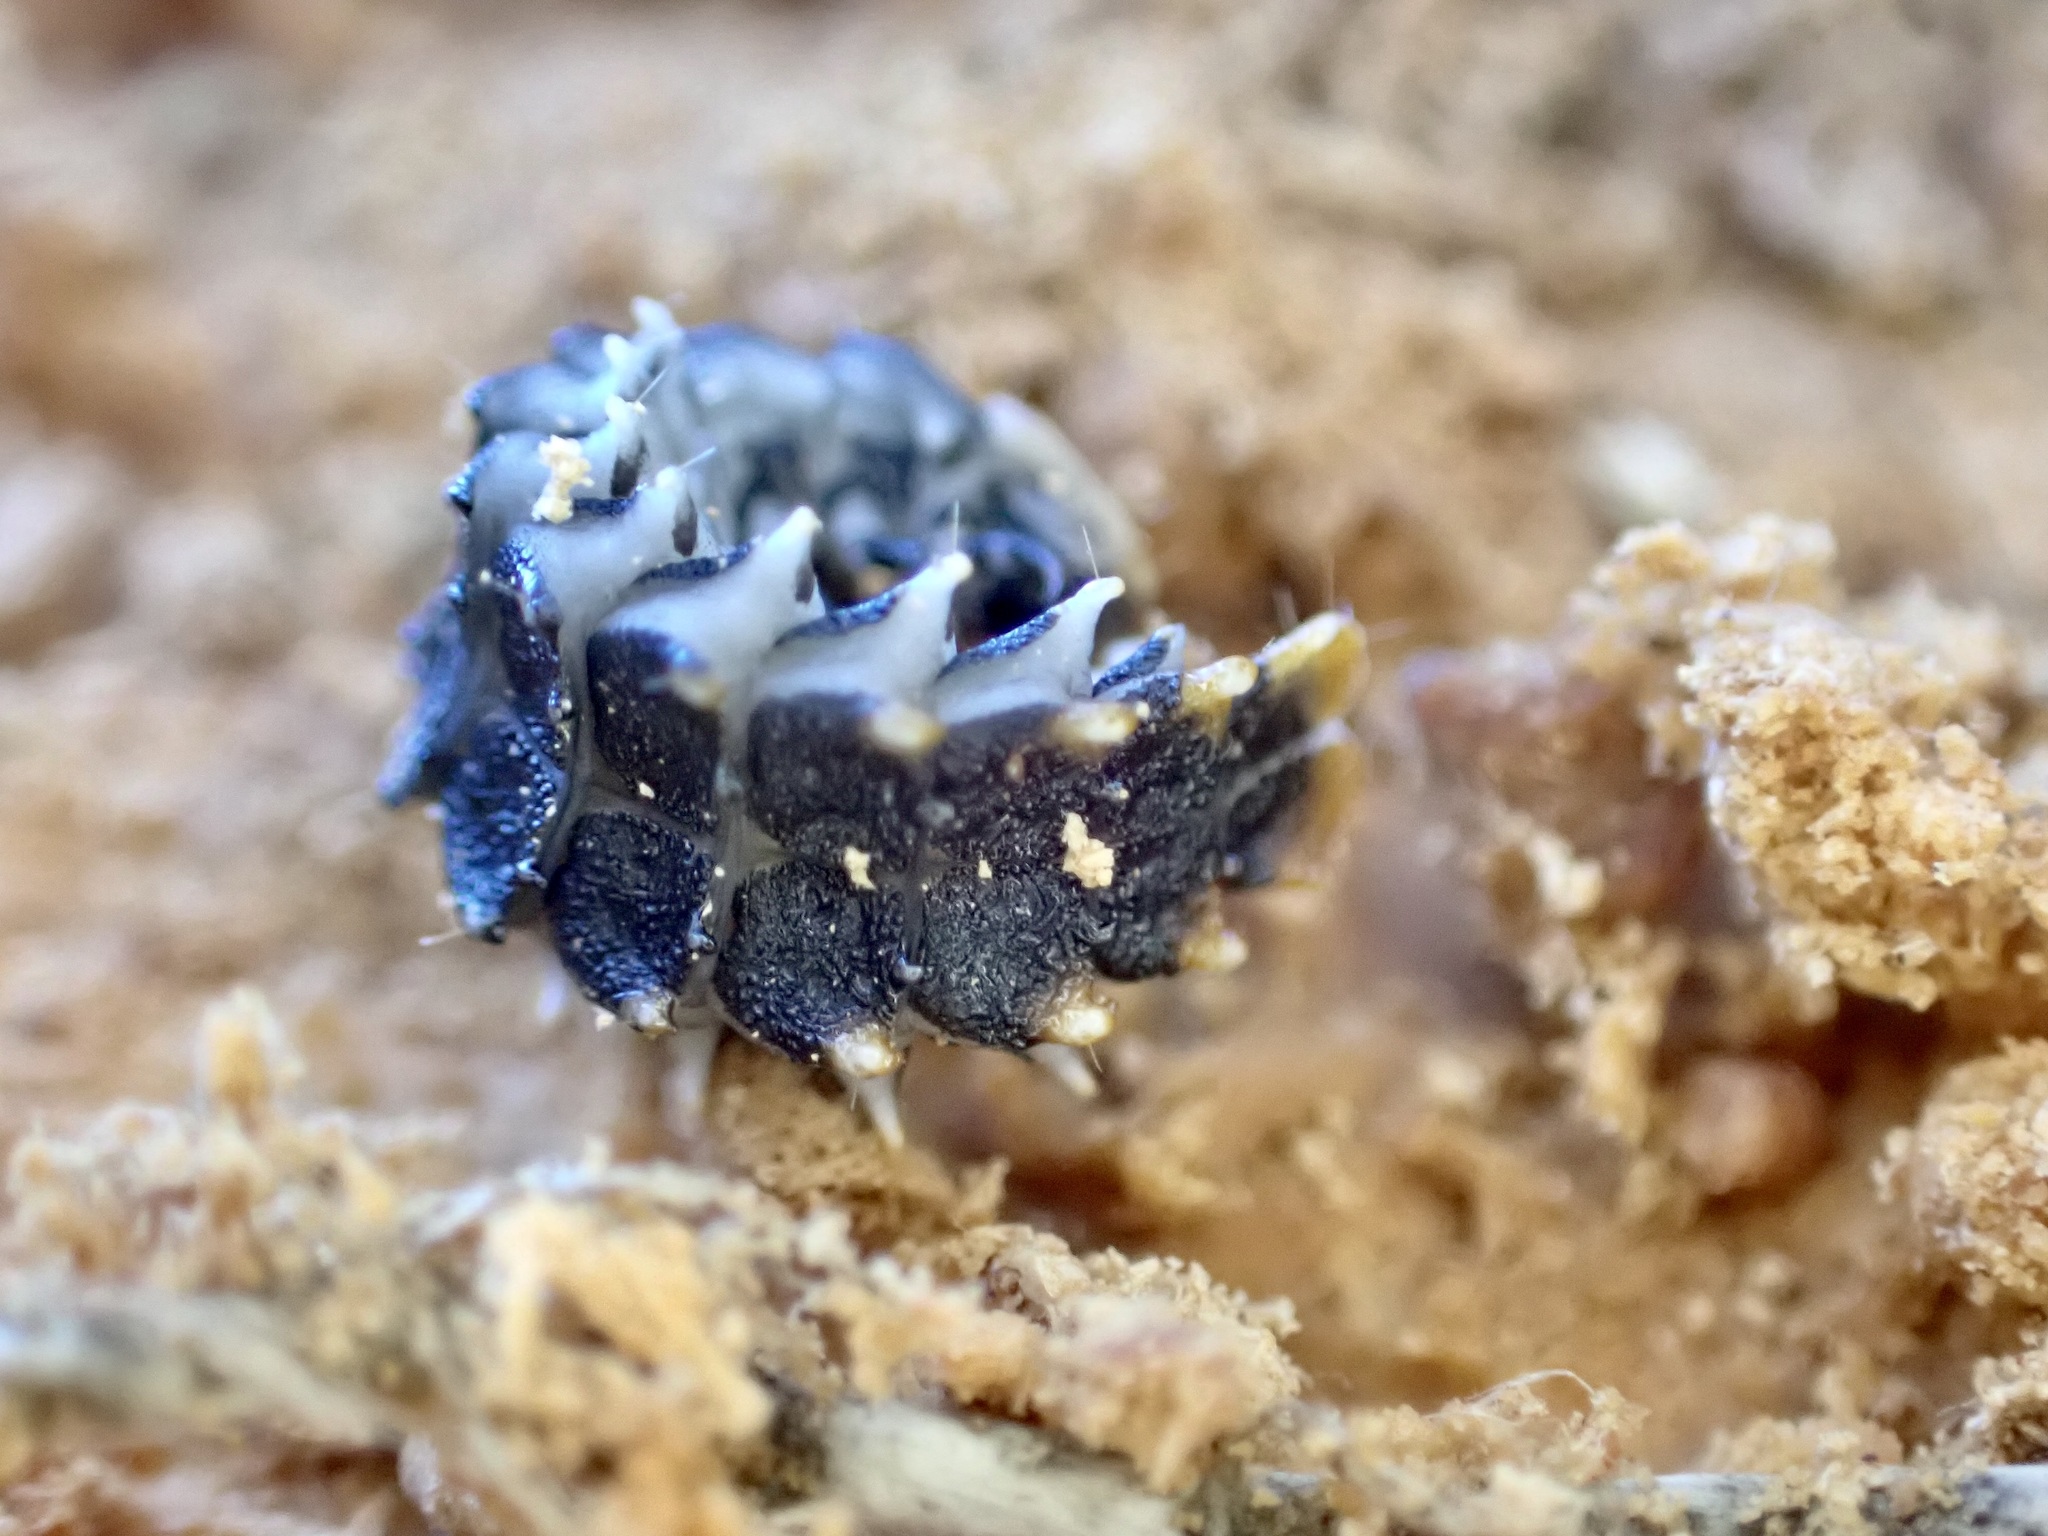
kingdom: Animalia
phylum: Arthropoda
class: Insecta
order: Coleoptera
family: Lycidae
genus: Porrostoma
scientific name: Porrostoma rufipenne
